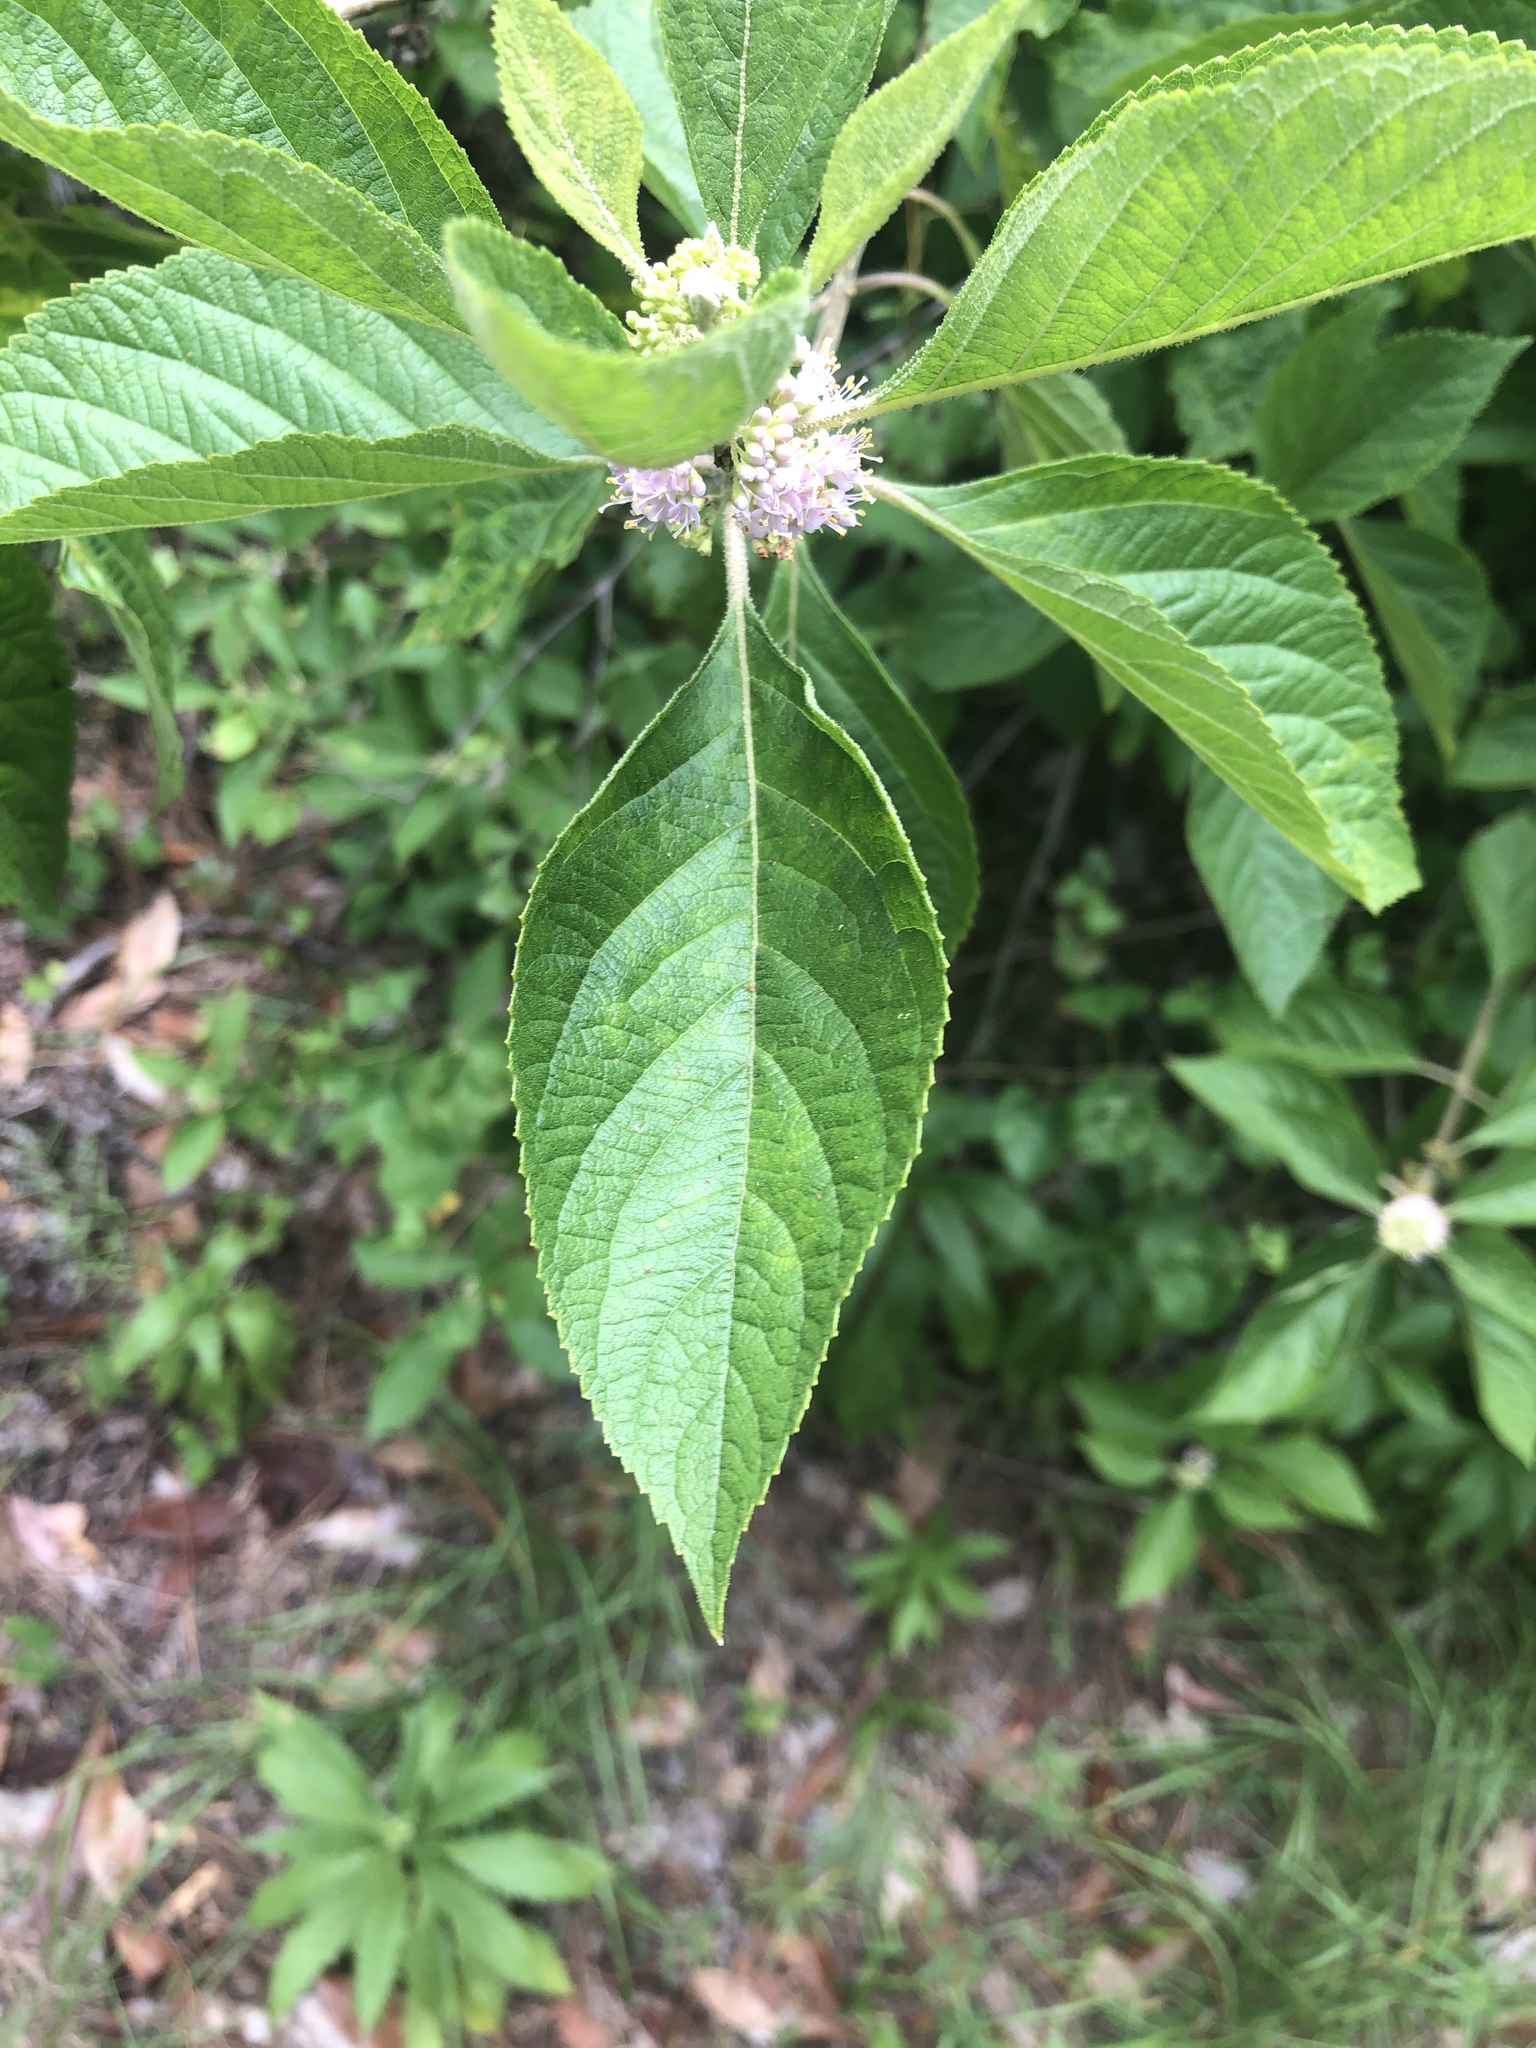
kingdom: Plantae
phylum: Tracheophyta
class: Magnoliopsida
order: Lamiales
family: Lamiaceae
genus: Callicarpa
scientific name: Callicarpa americana
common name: American beautyberry
